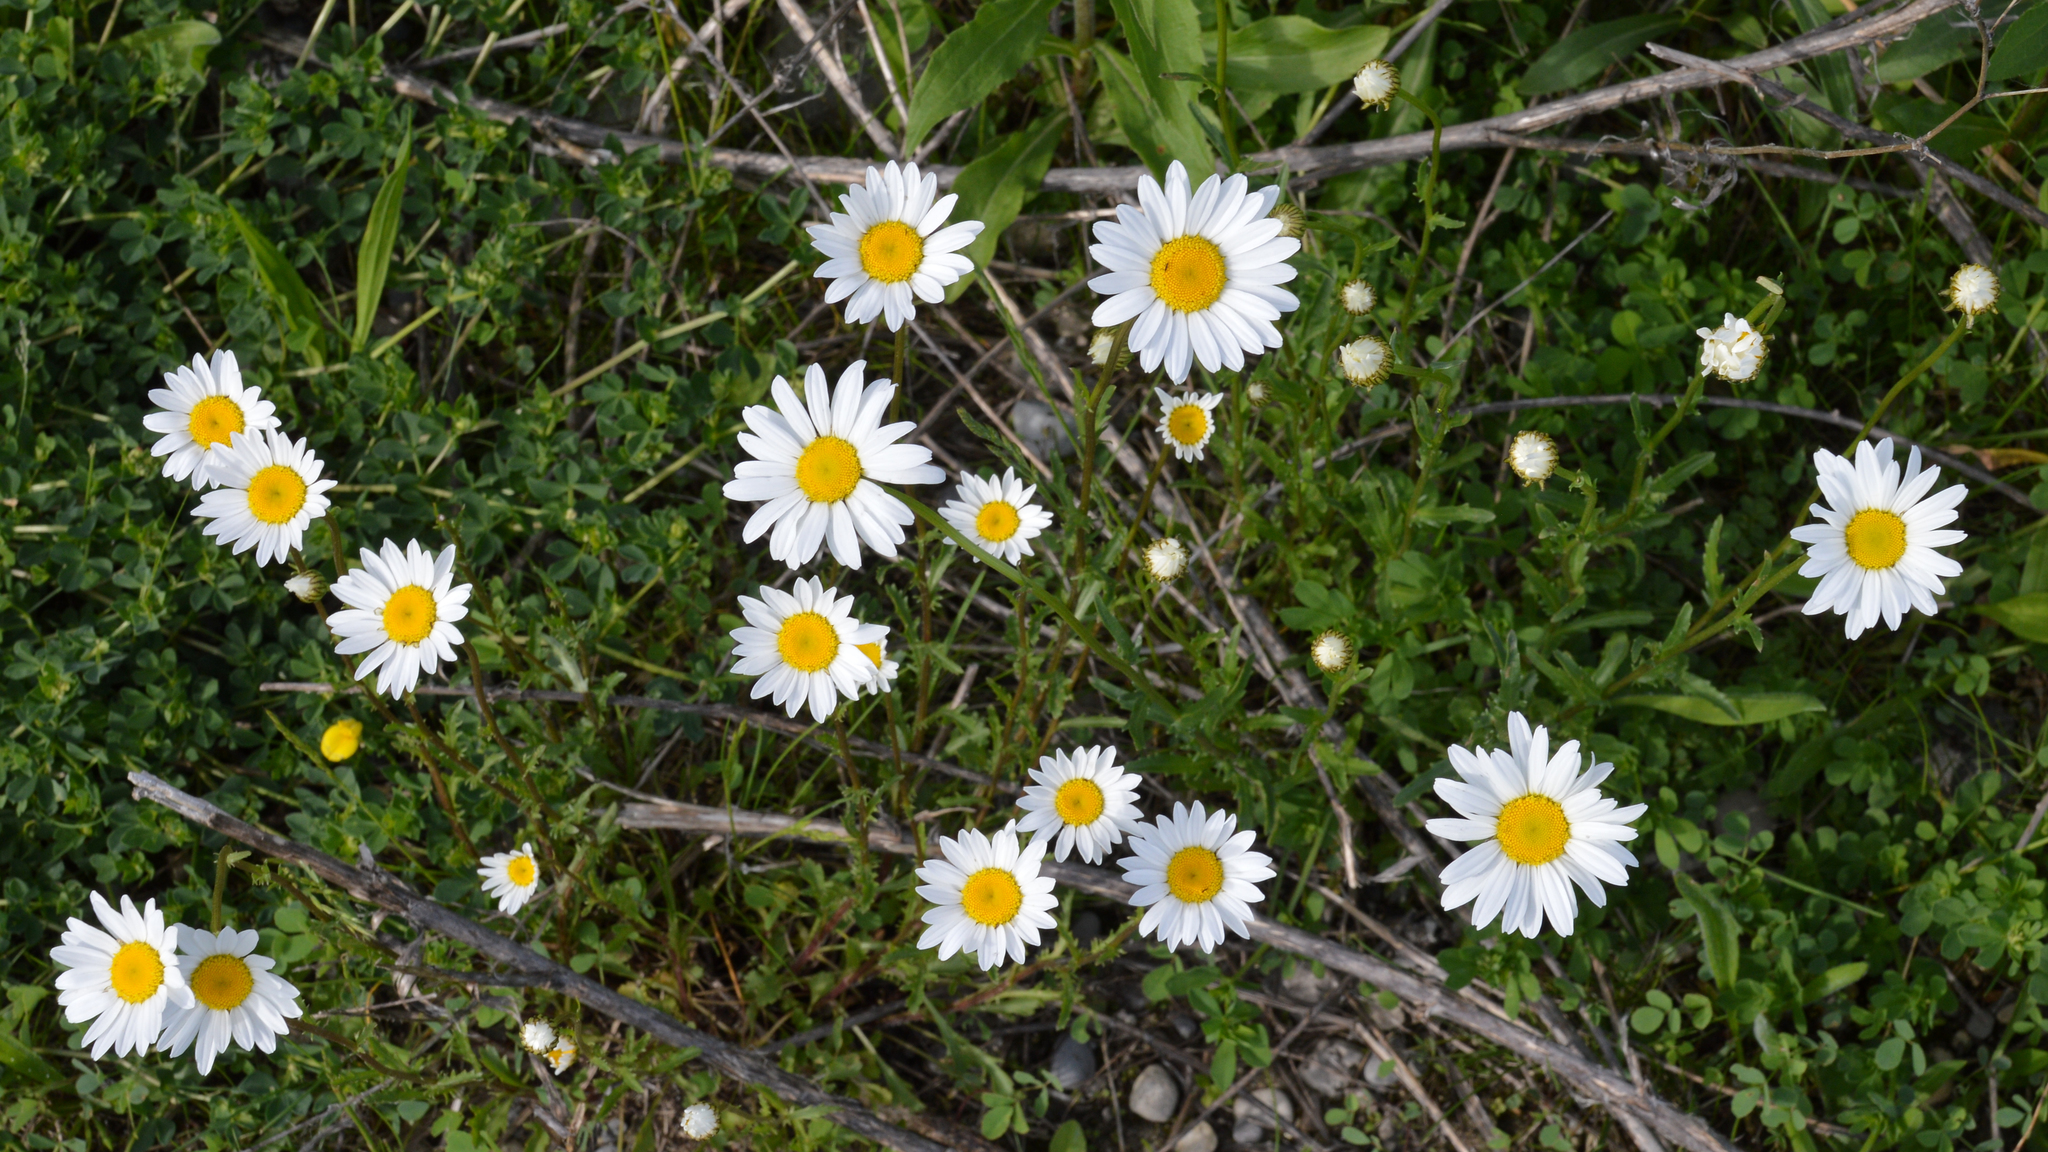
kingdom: Plantae
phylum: Tracheophyta
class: Magnoliopsida
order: Asterales
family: Asteraceae
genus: Leucanthemum
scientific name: Leucanthemum vulgare
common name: Oxeye daisy
